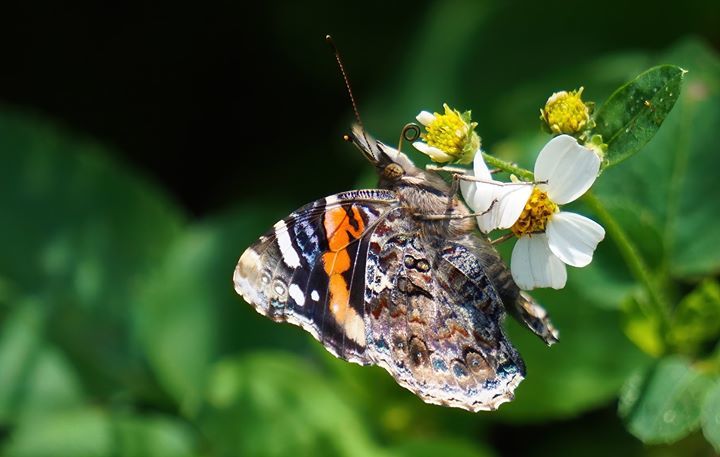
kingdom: Animalia
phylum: Arthropoda
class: Insecta
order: Lepidoptera
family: Nymphalidae
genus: Vanessa
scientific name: Vanessa atalanta
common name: Red admiral
